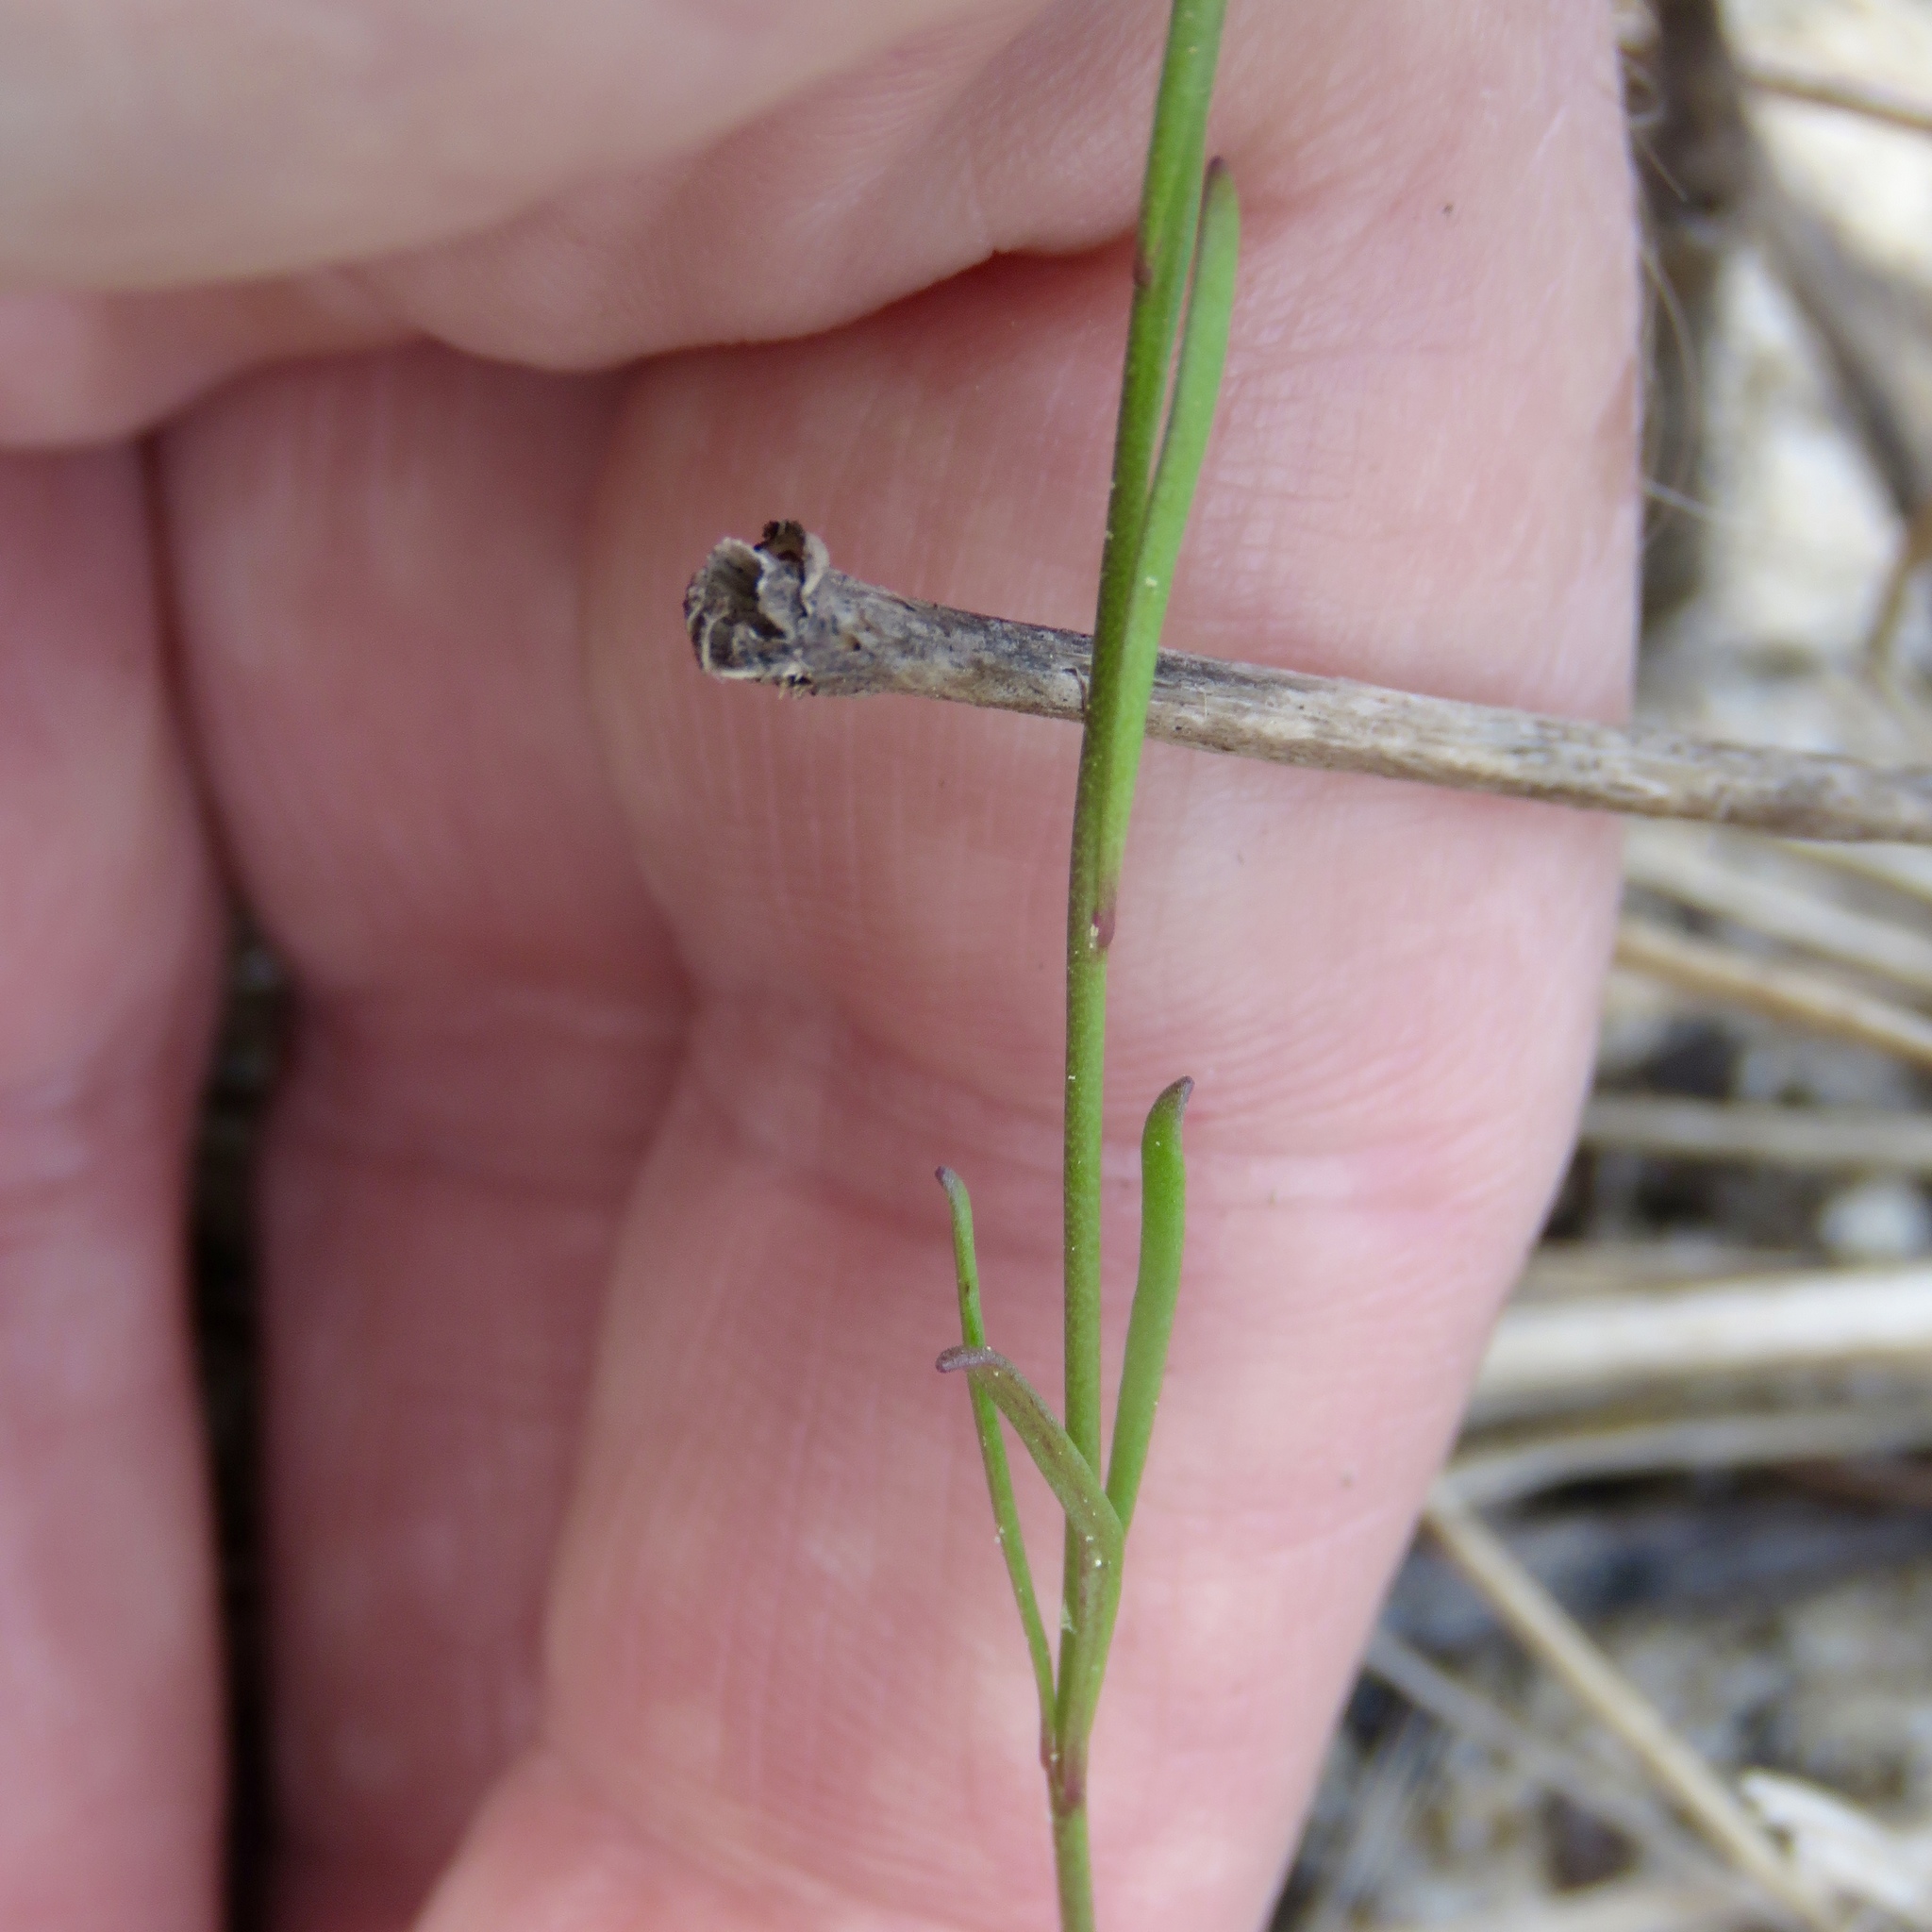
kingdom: Plantae
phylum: Tracheophyta
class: Magnoliopsida
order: Lamiales
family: Plantaginaceae
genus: Nuttallanthus
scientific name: Nuttallanthus canadensis
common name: Blue toadflax
